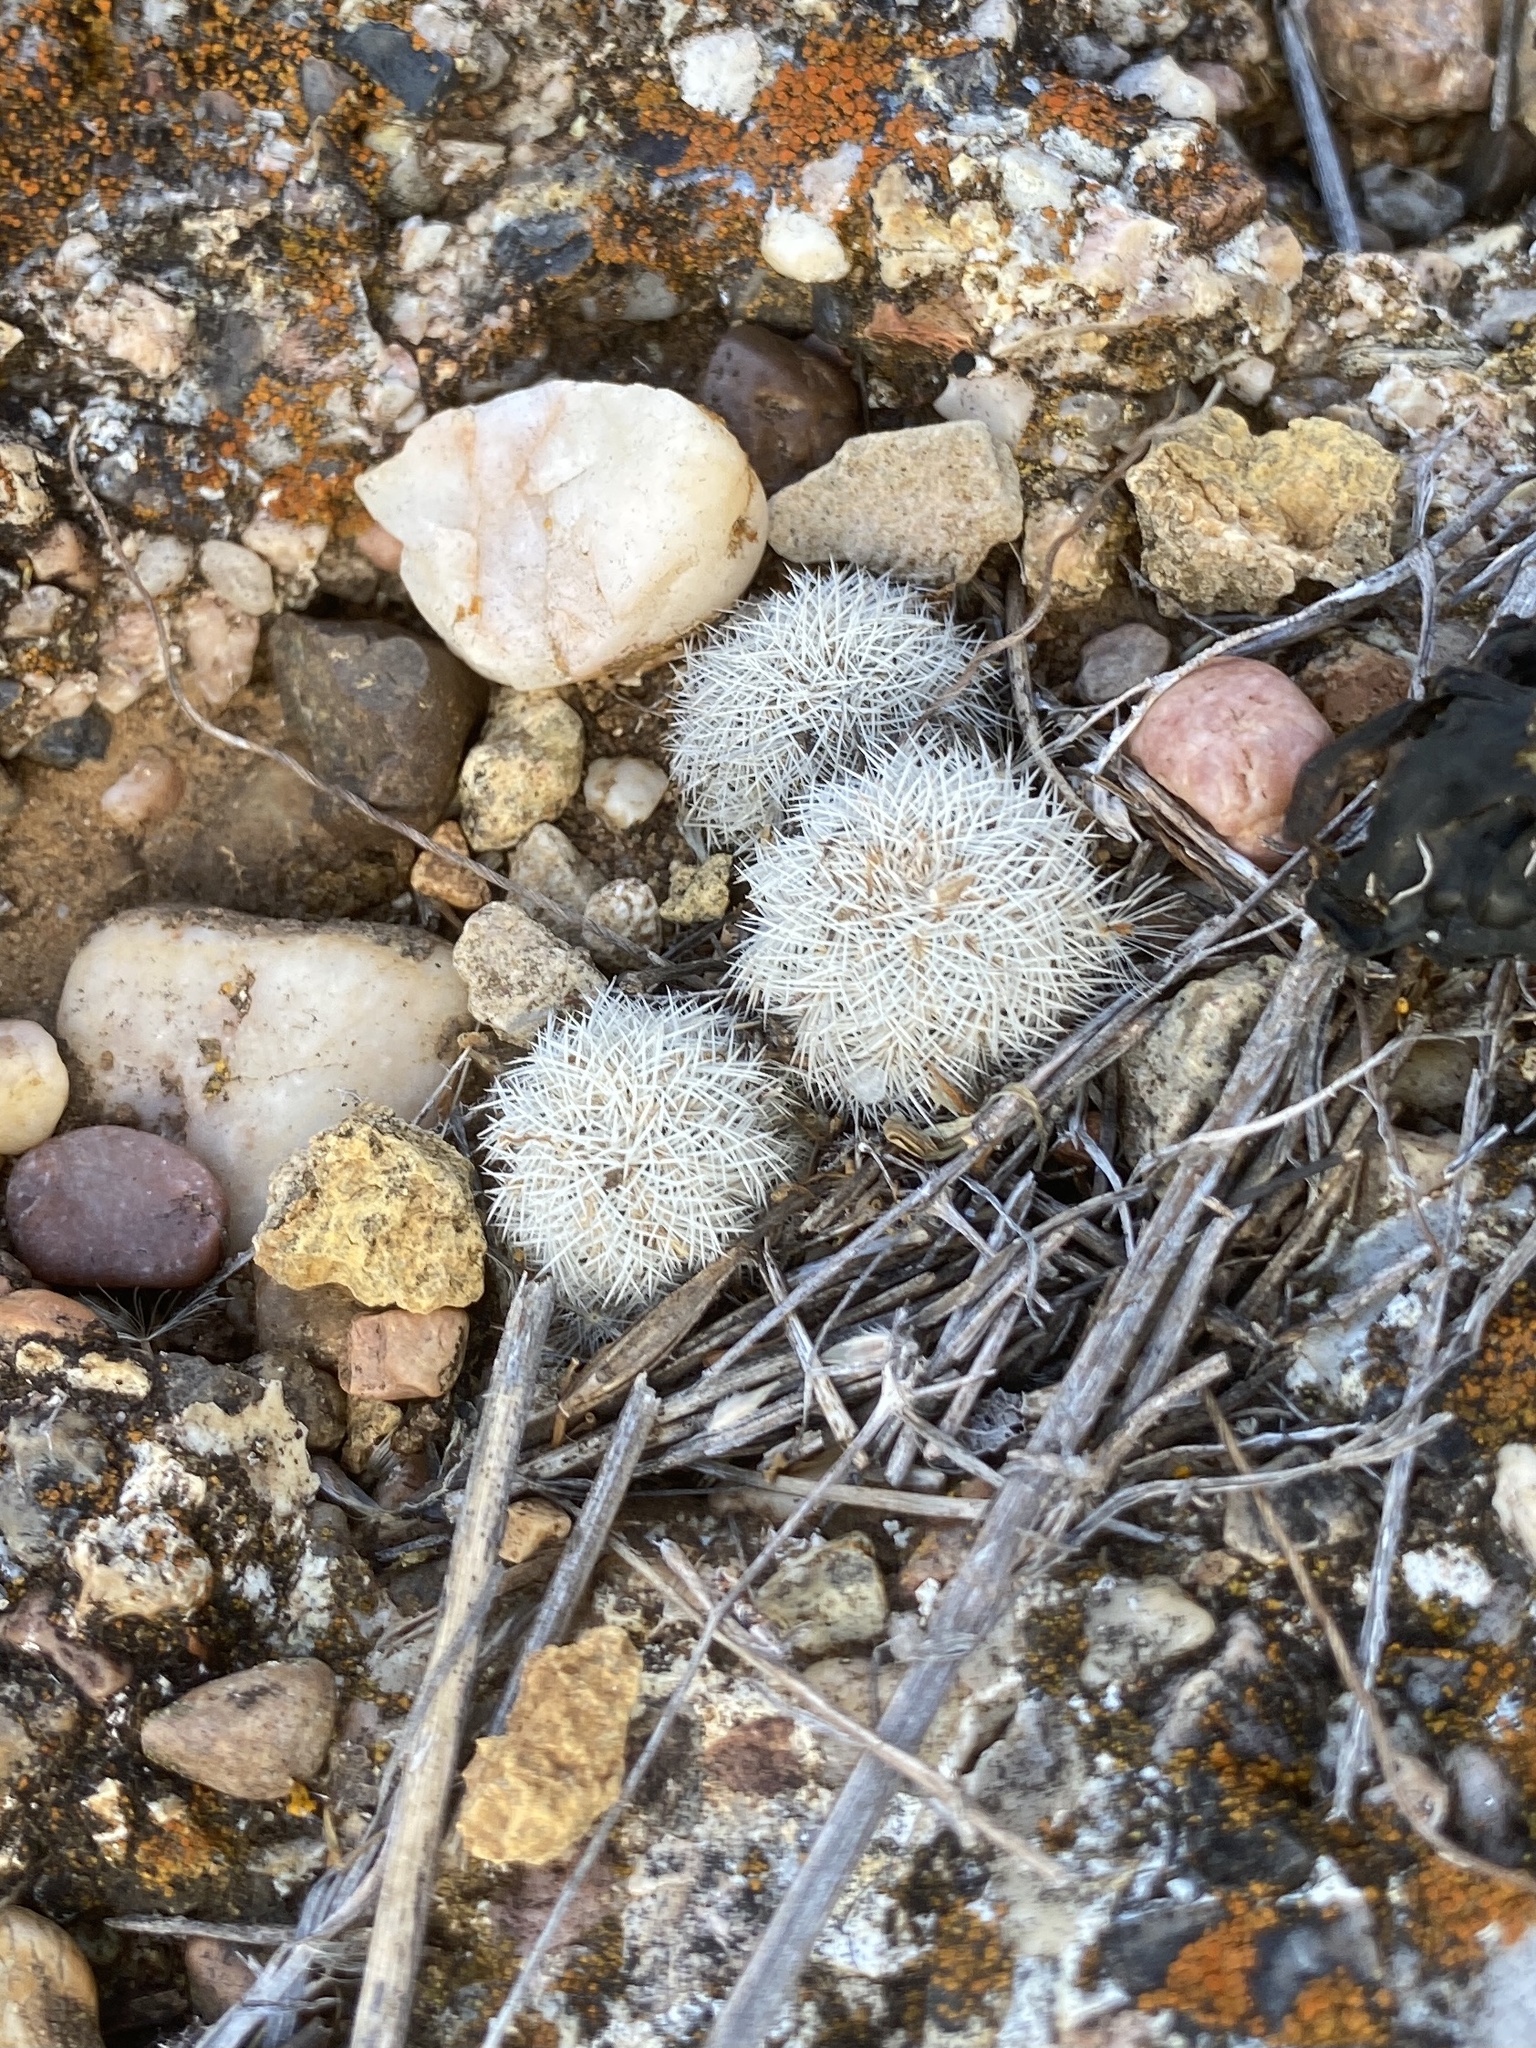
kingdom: Plantae
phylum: Tracheophyta
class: Magnoliopsida
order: Caryophyllales
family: Cactaceae
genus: Echinocereus
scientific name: Echinocereus reichenbachii
